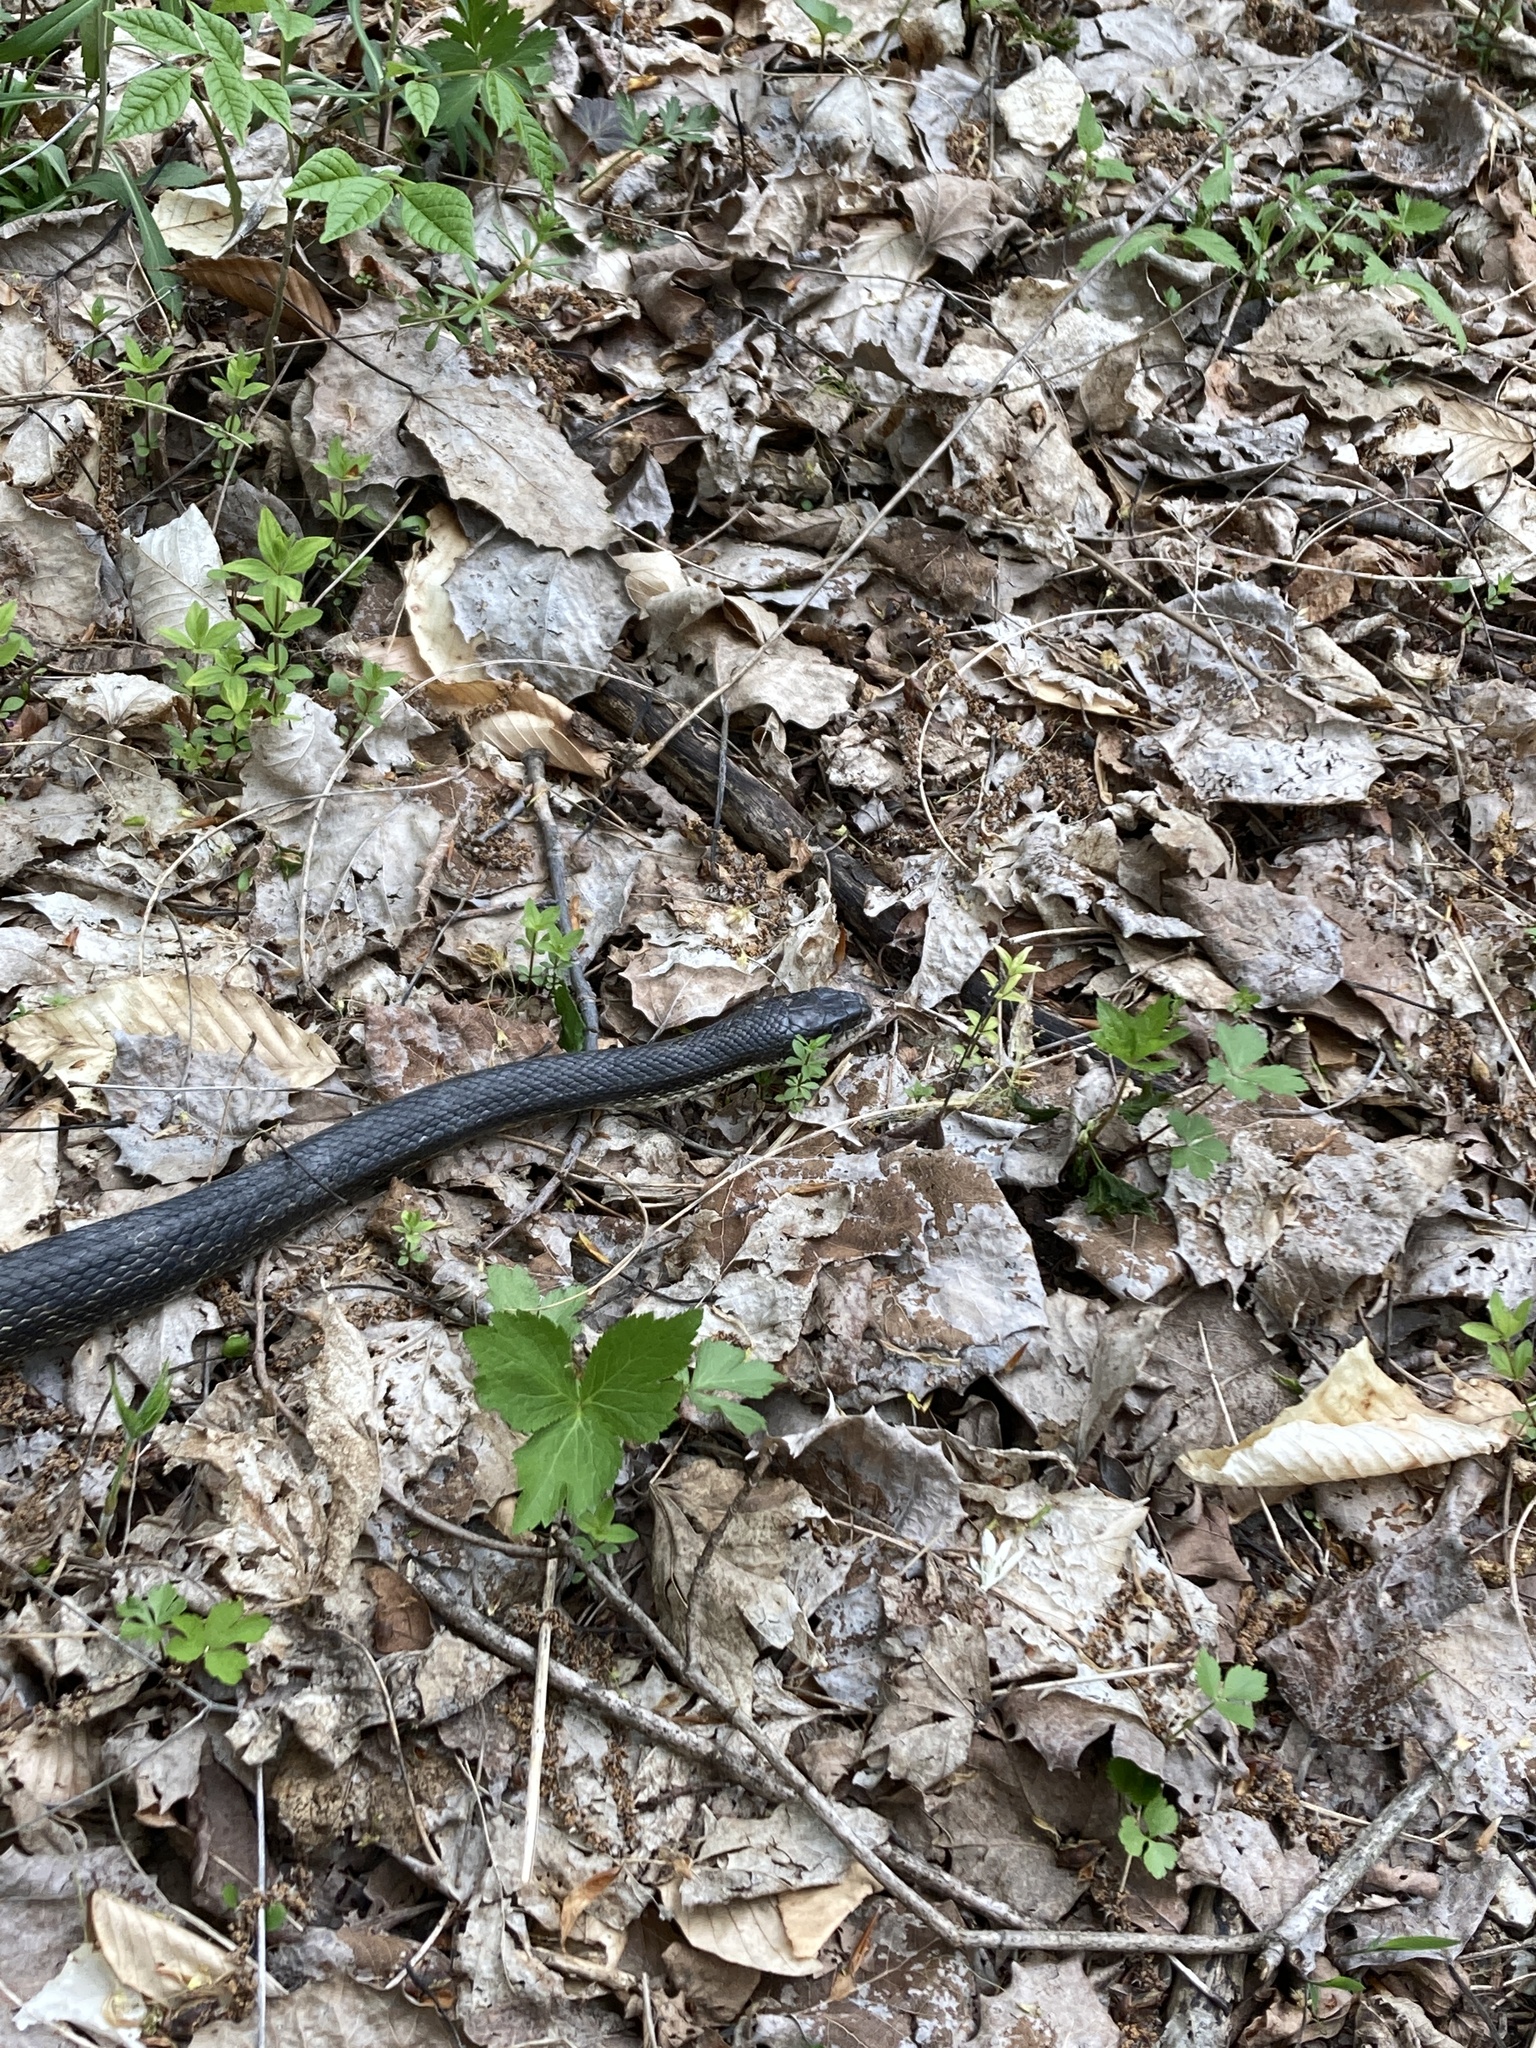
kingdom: Animalia
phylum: Chordata
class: Squamata
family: Colubridae
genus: Pantherophis
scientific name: Pantherophis spiloides
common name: Gray rat snake
